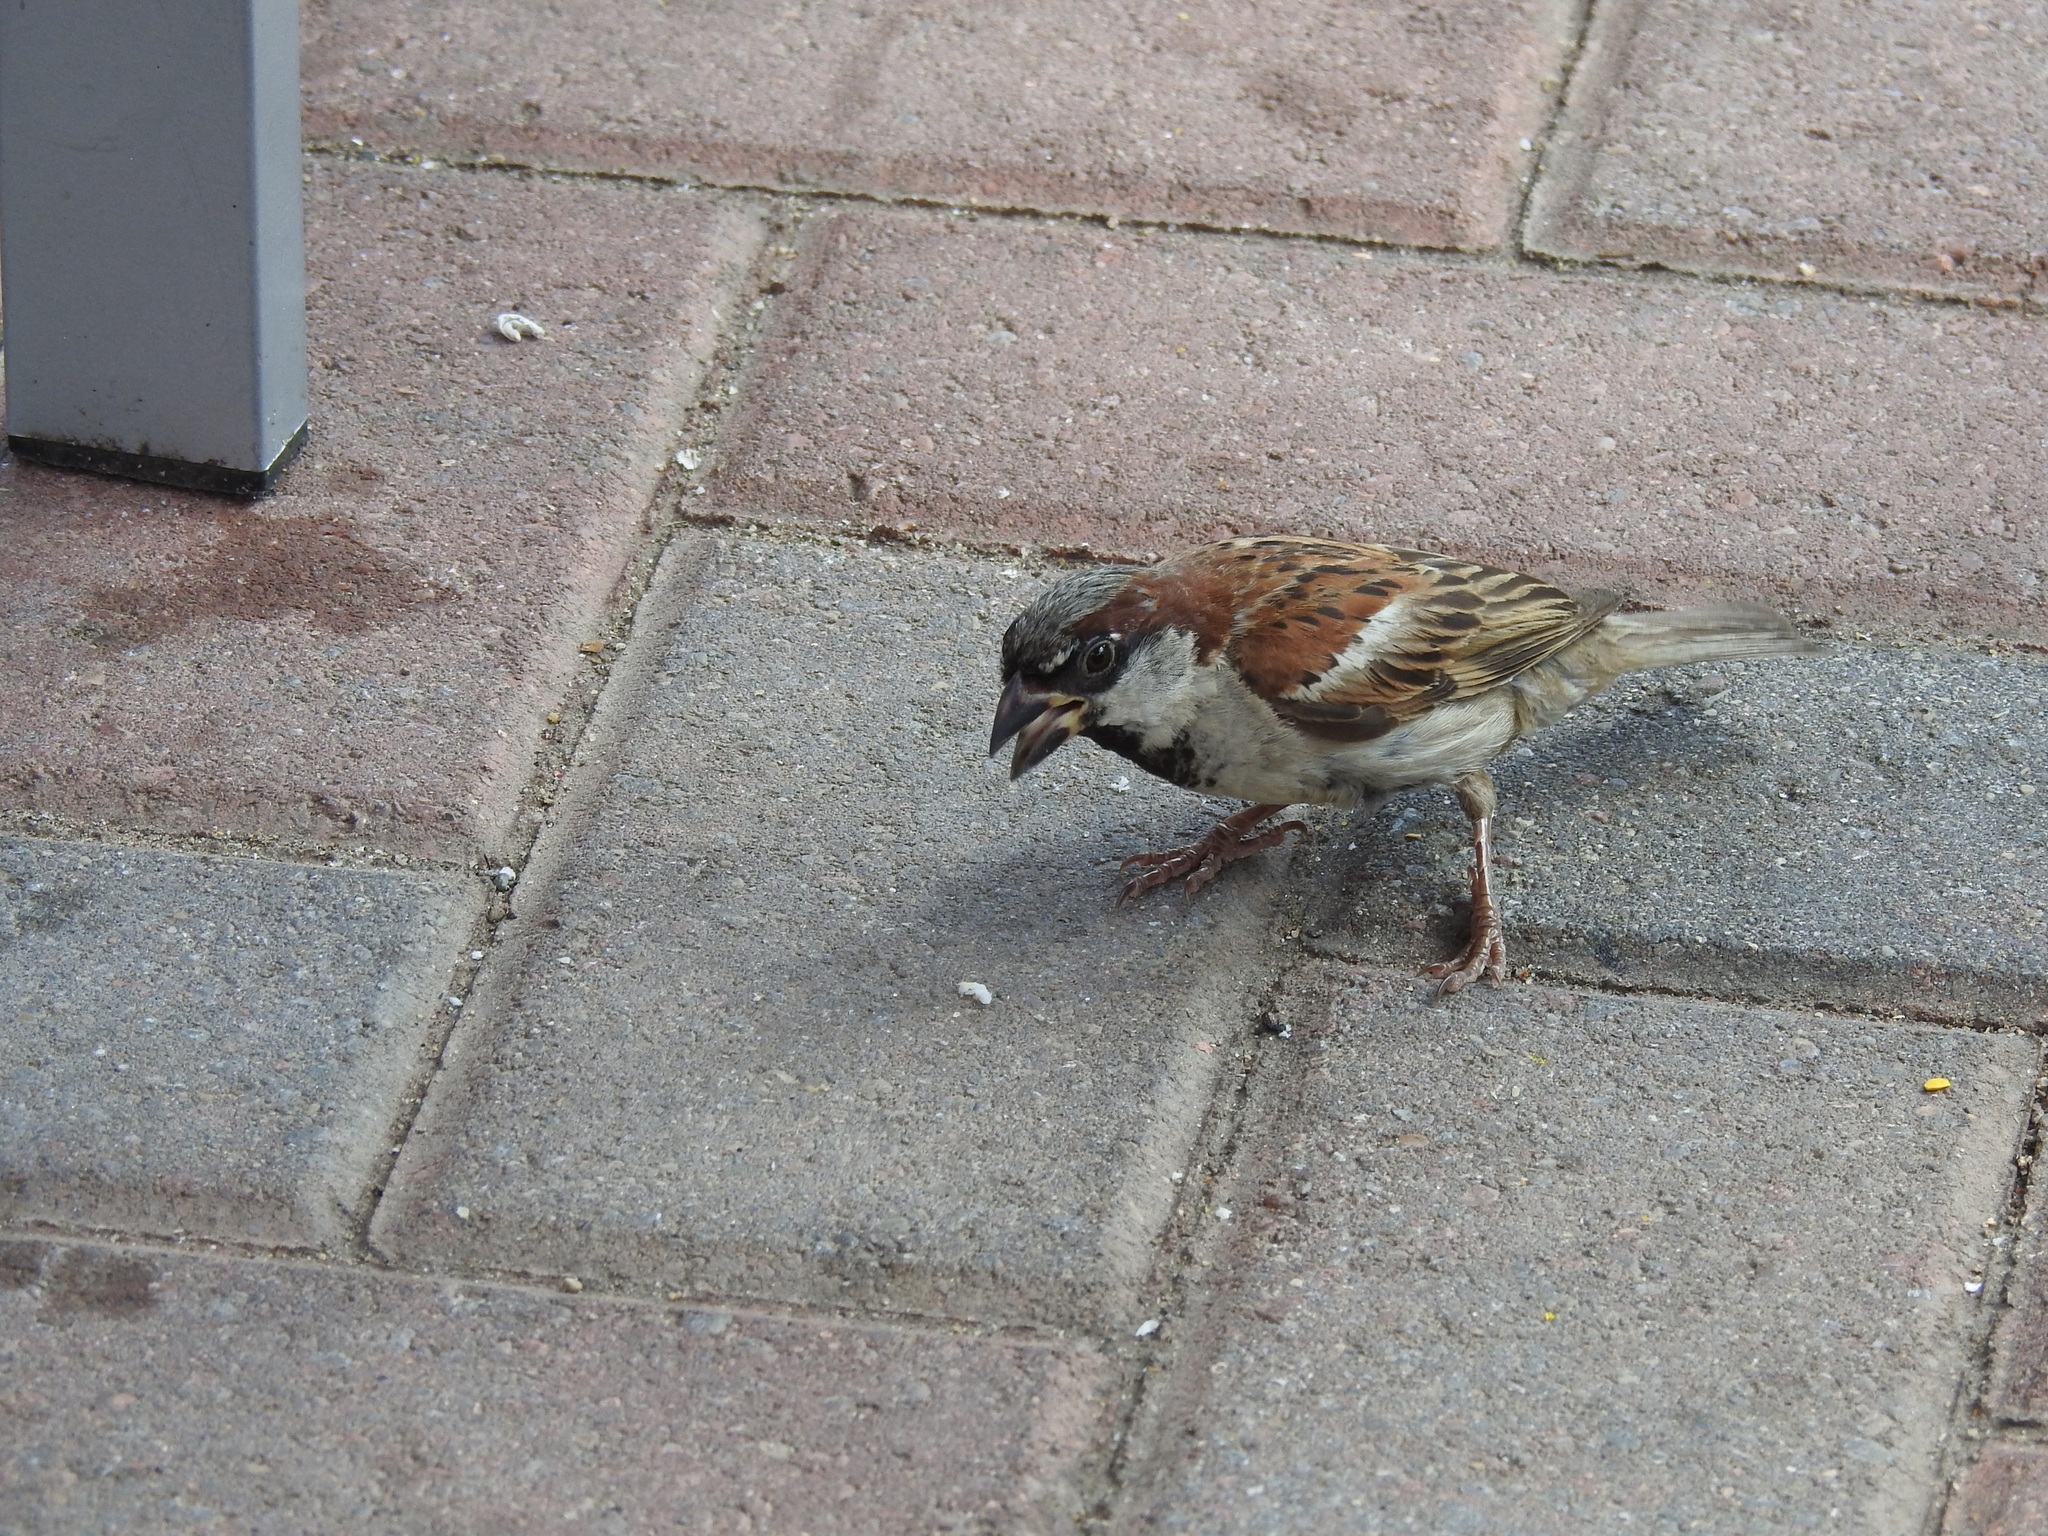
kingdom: Animalia
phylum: Chordata
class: Aves
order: Passeriformes
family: Passeridae
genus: Passer
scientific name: Passer domesticus
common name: House sparrow
